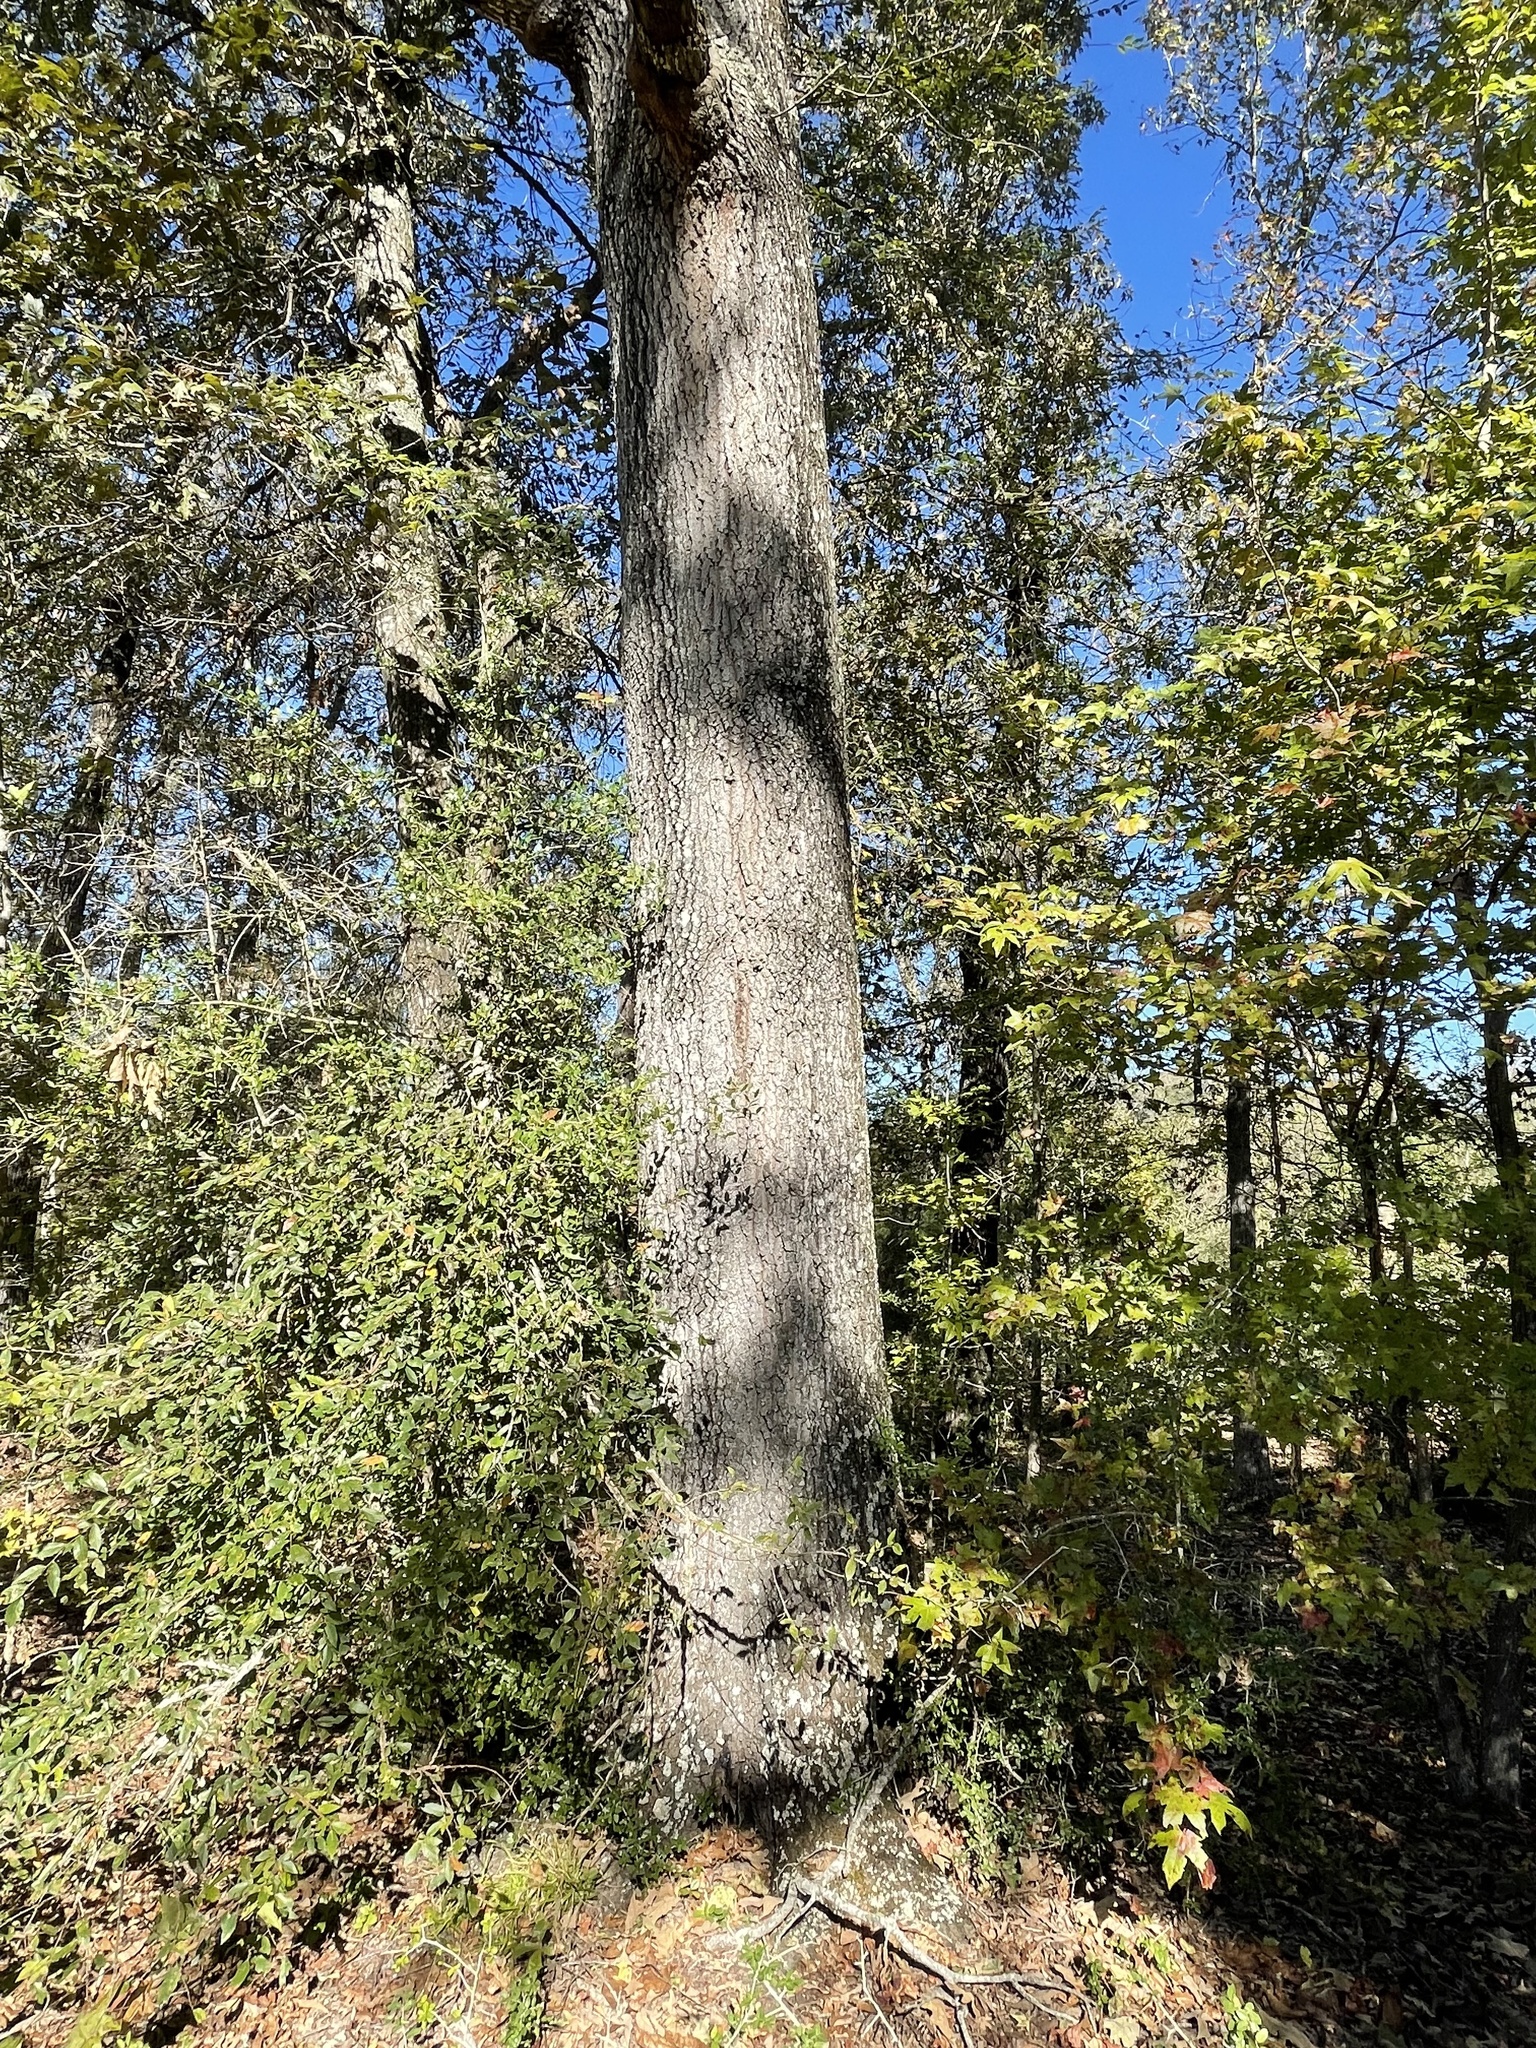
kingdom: Plantae
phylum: Tracheophyta
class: Magnoliopsida
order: Fagales
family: Fagaceae
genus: Quercus
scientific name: Quercus falcata
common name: Southern red oak
